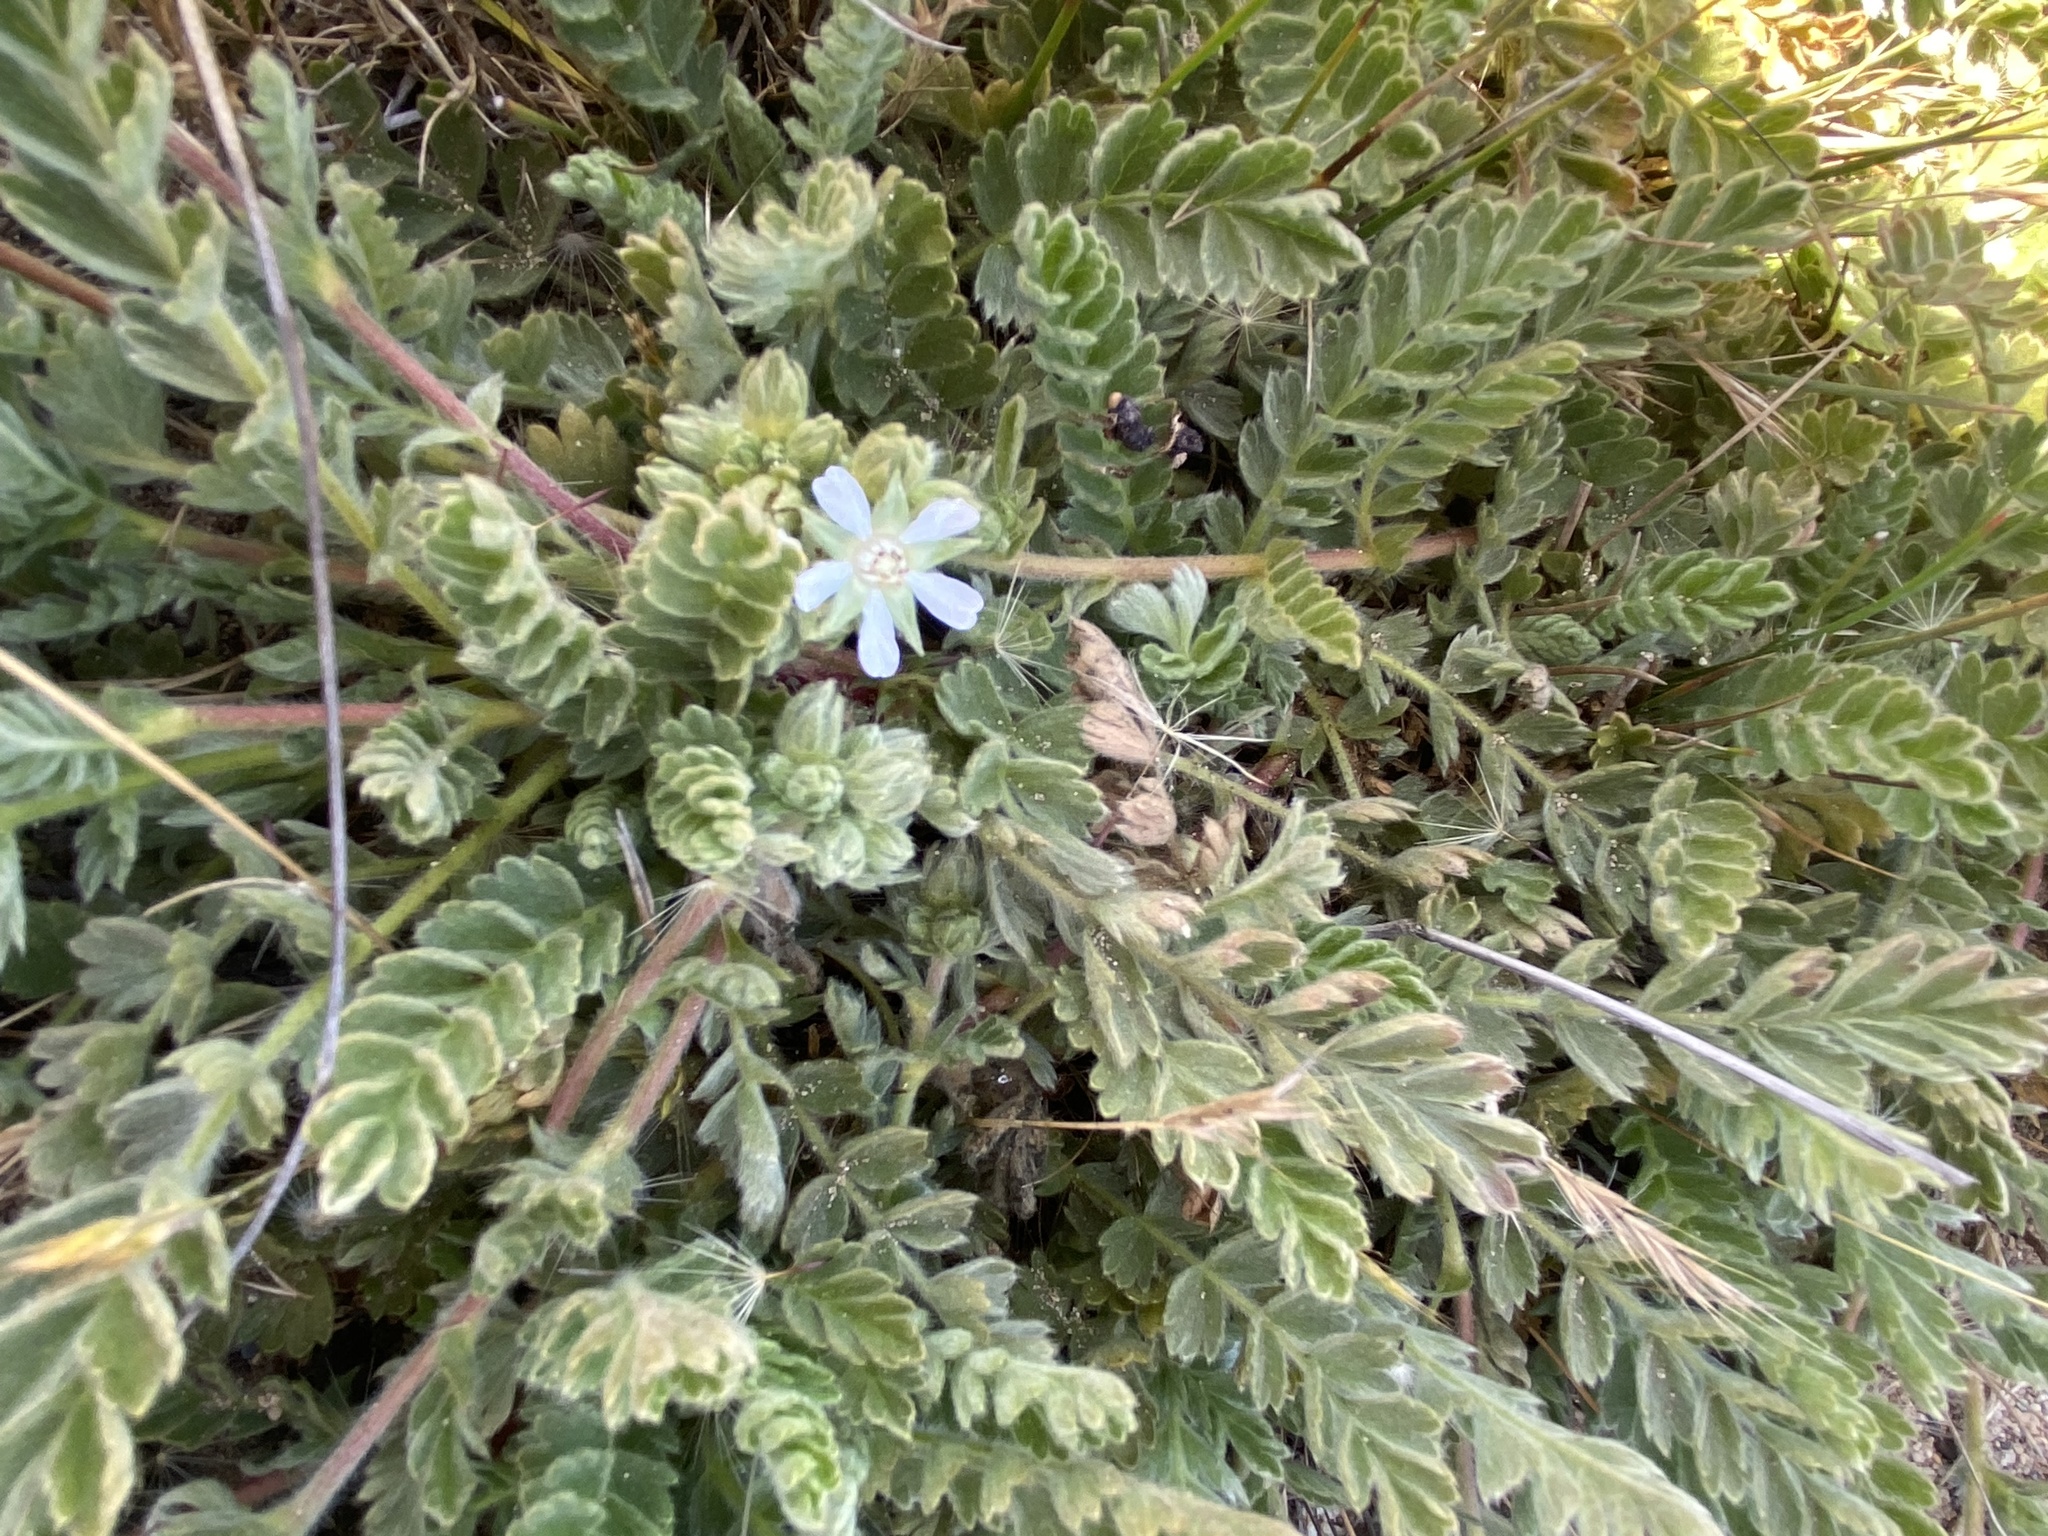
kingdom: Plantae
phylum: Tracheophyta
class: Magnoliopsida
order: Rosales
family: Rosaceae
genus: Potentilla
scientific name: Potentilla marinensis
